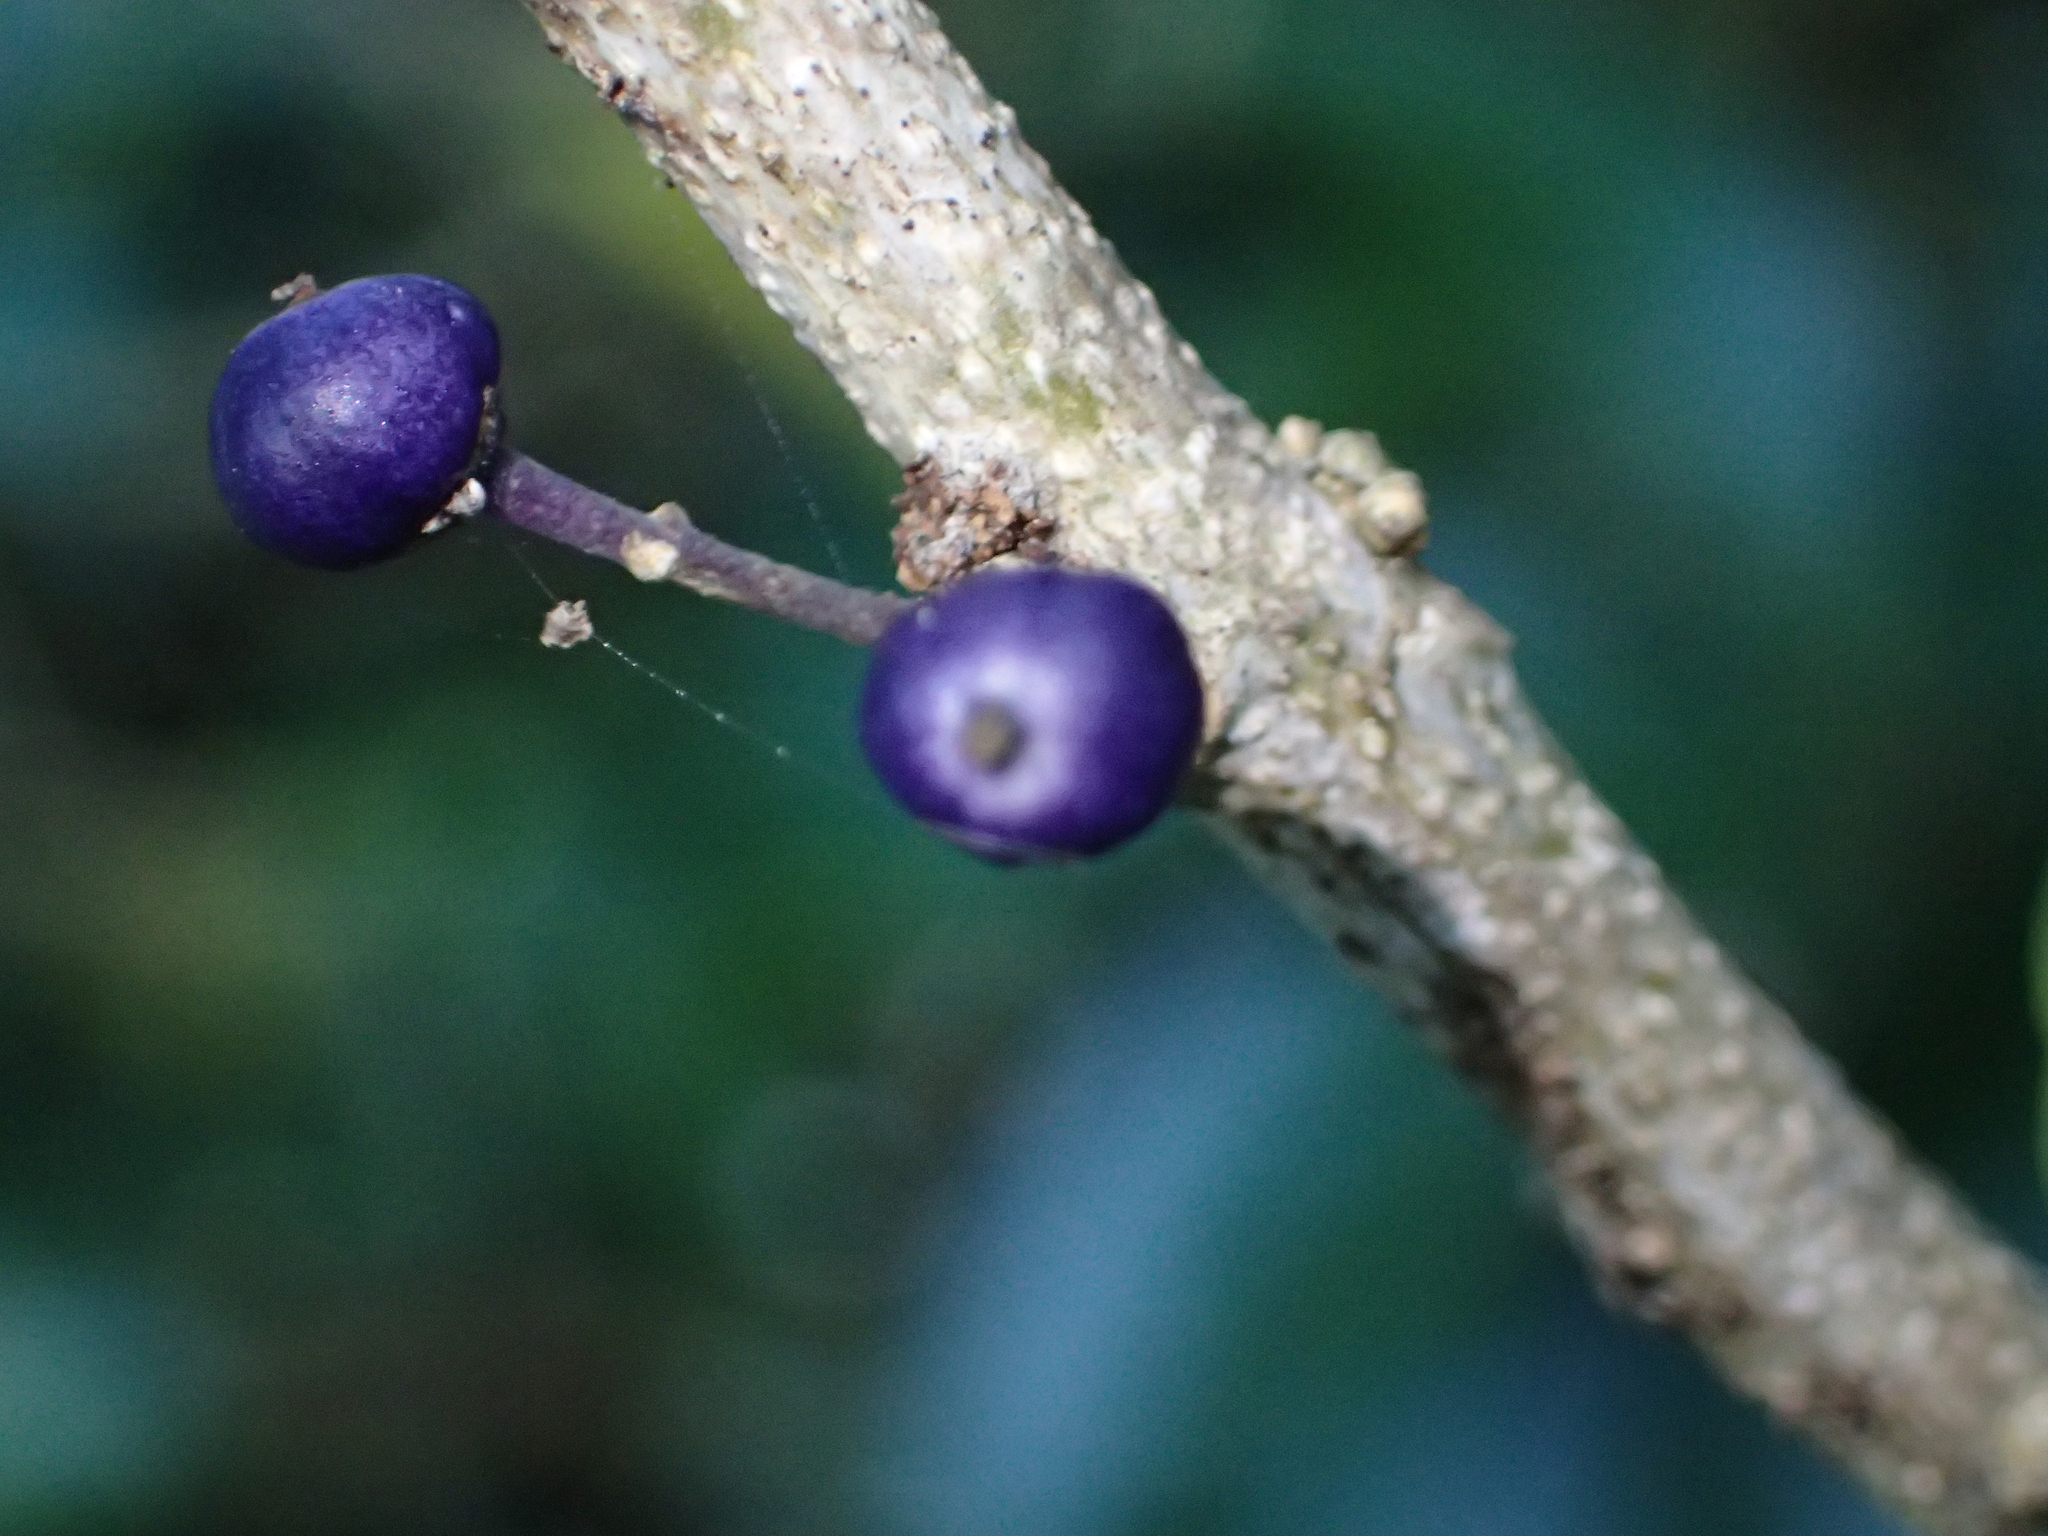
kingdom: Plantae
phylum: Tracheophyta
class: Magnoliopsida
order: Malpighiales
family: Violaceae
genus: Melicytus
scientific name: Melicytus ramiflorus
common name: Mahoe
